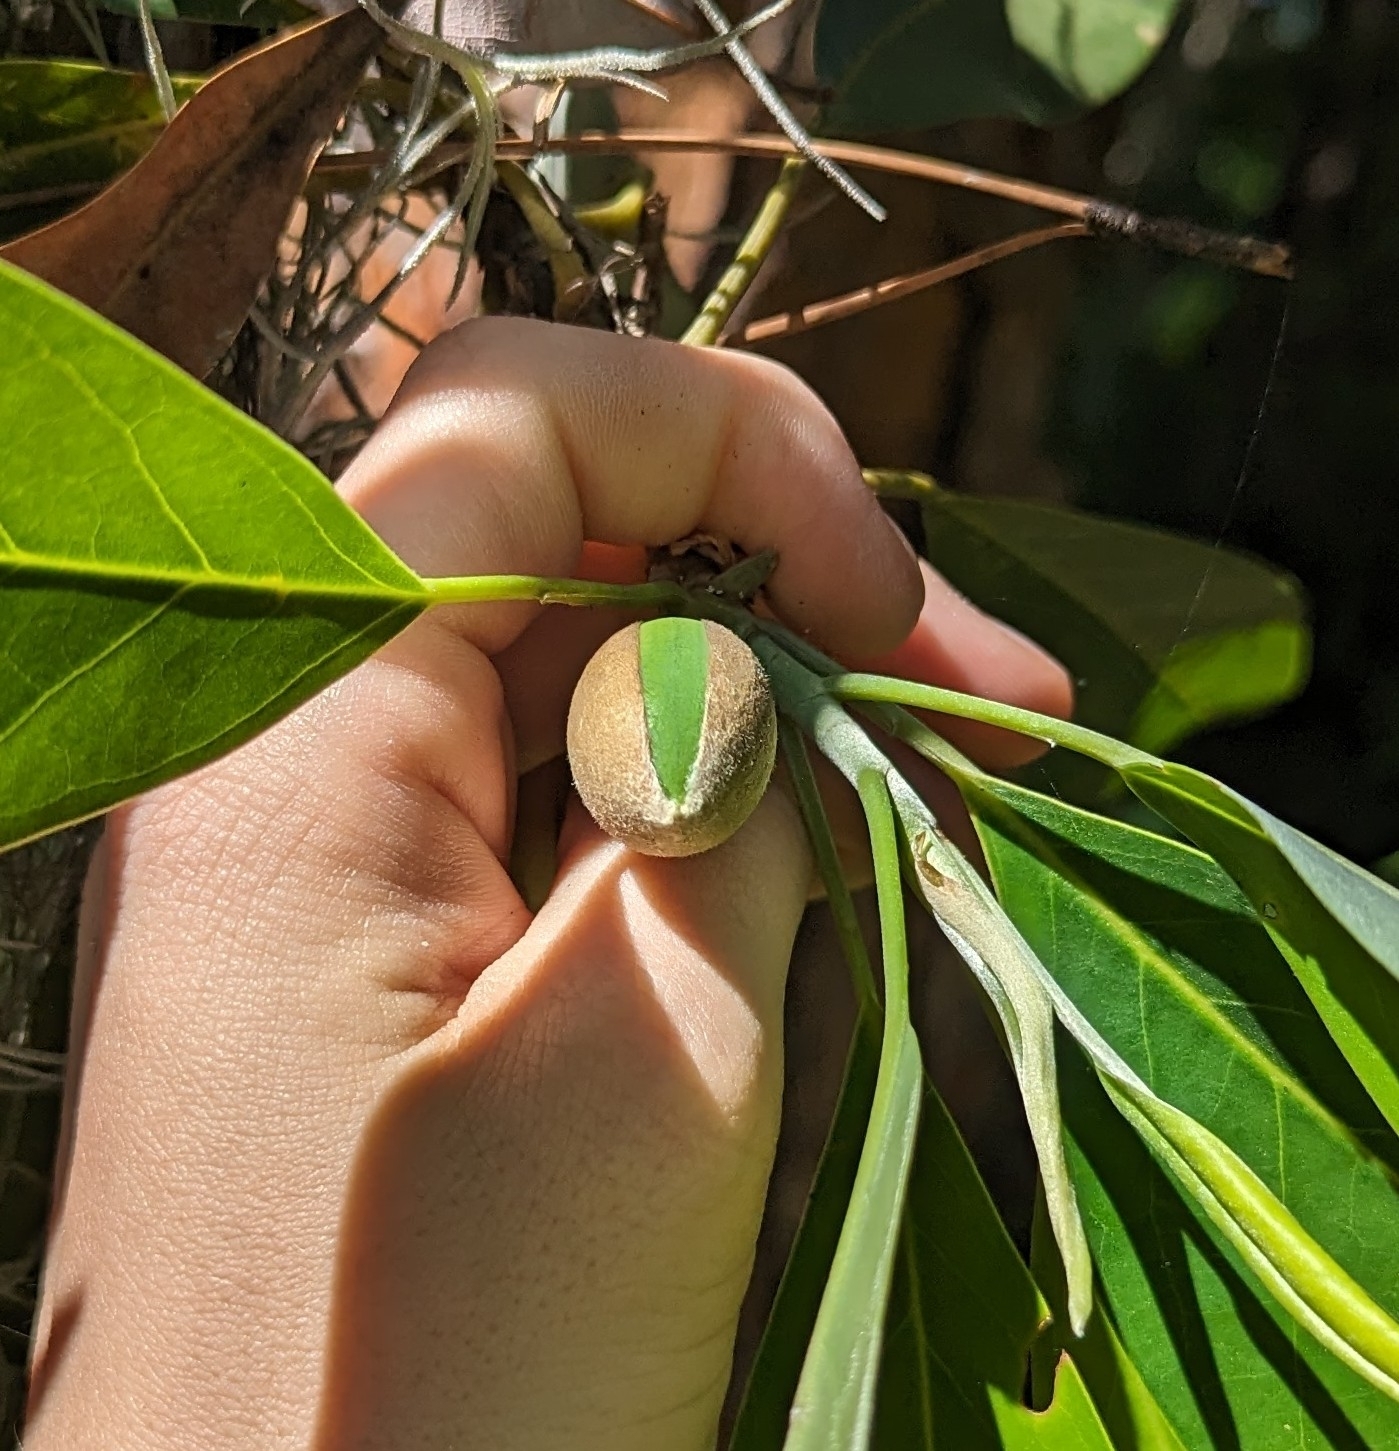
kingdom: Plantae
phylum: Tracheophyta
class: Magnoliopsida
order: Magnoliales
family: Magnoliaceae
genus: Magnolia
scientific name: Magnolia virginiana
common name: Swamp bay
